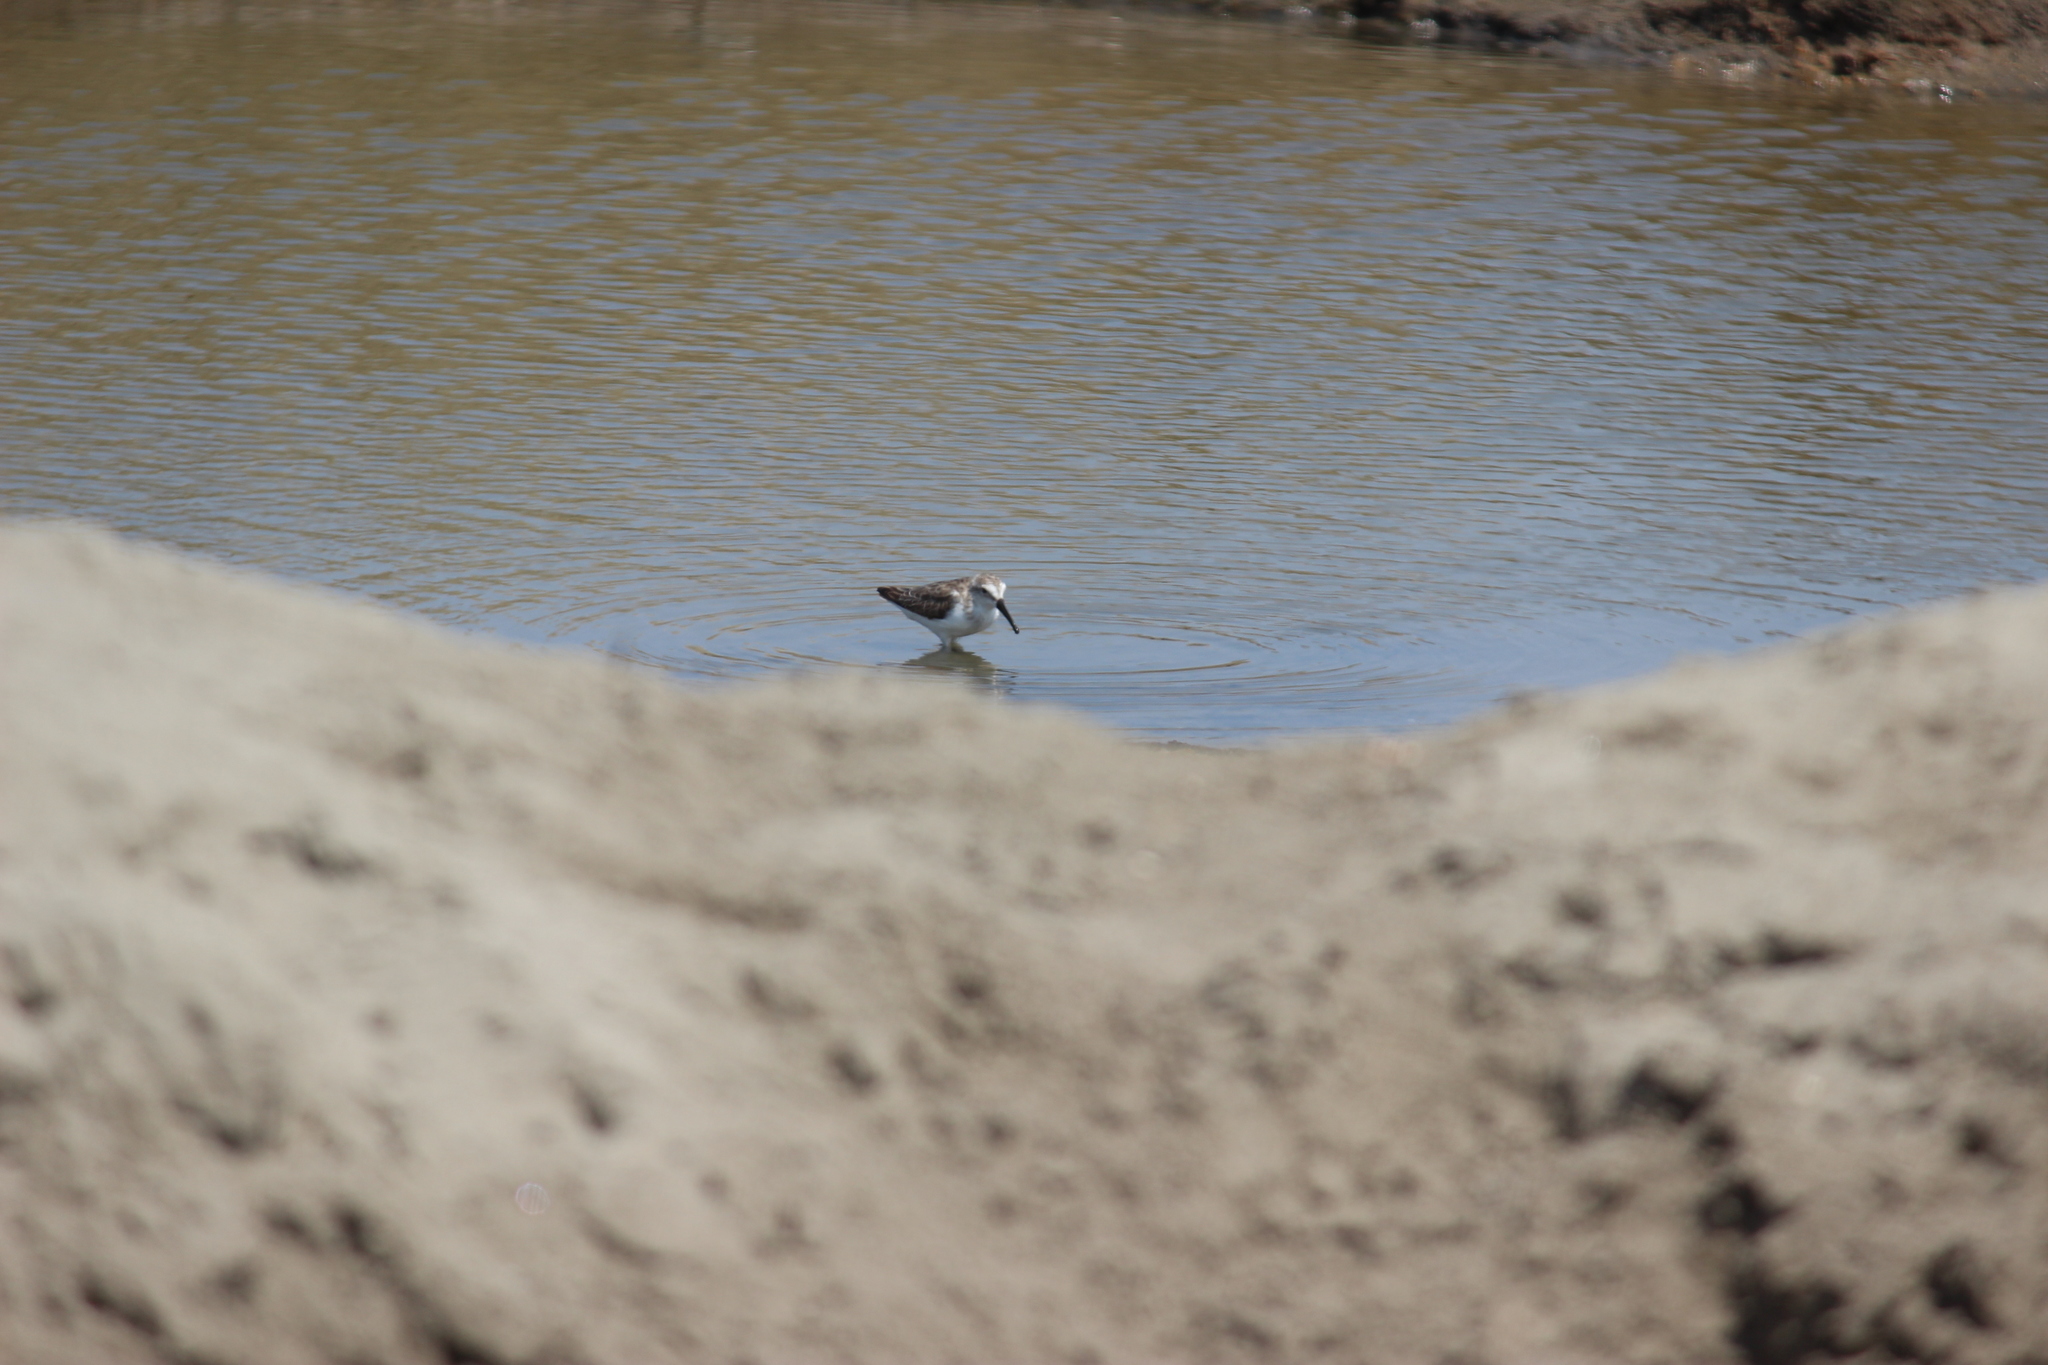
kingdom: Animalia
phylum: Chordata
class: Aves
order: Charadriiformes
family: Scolopacidae
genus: Calidris
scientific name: Calidris mauri
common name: Western sandpiper
